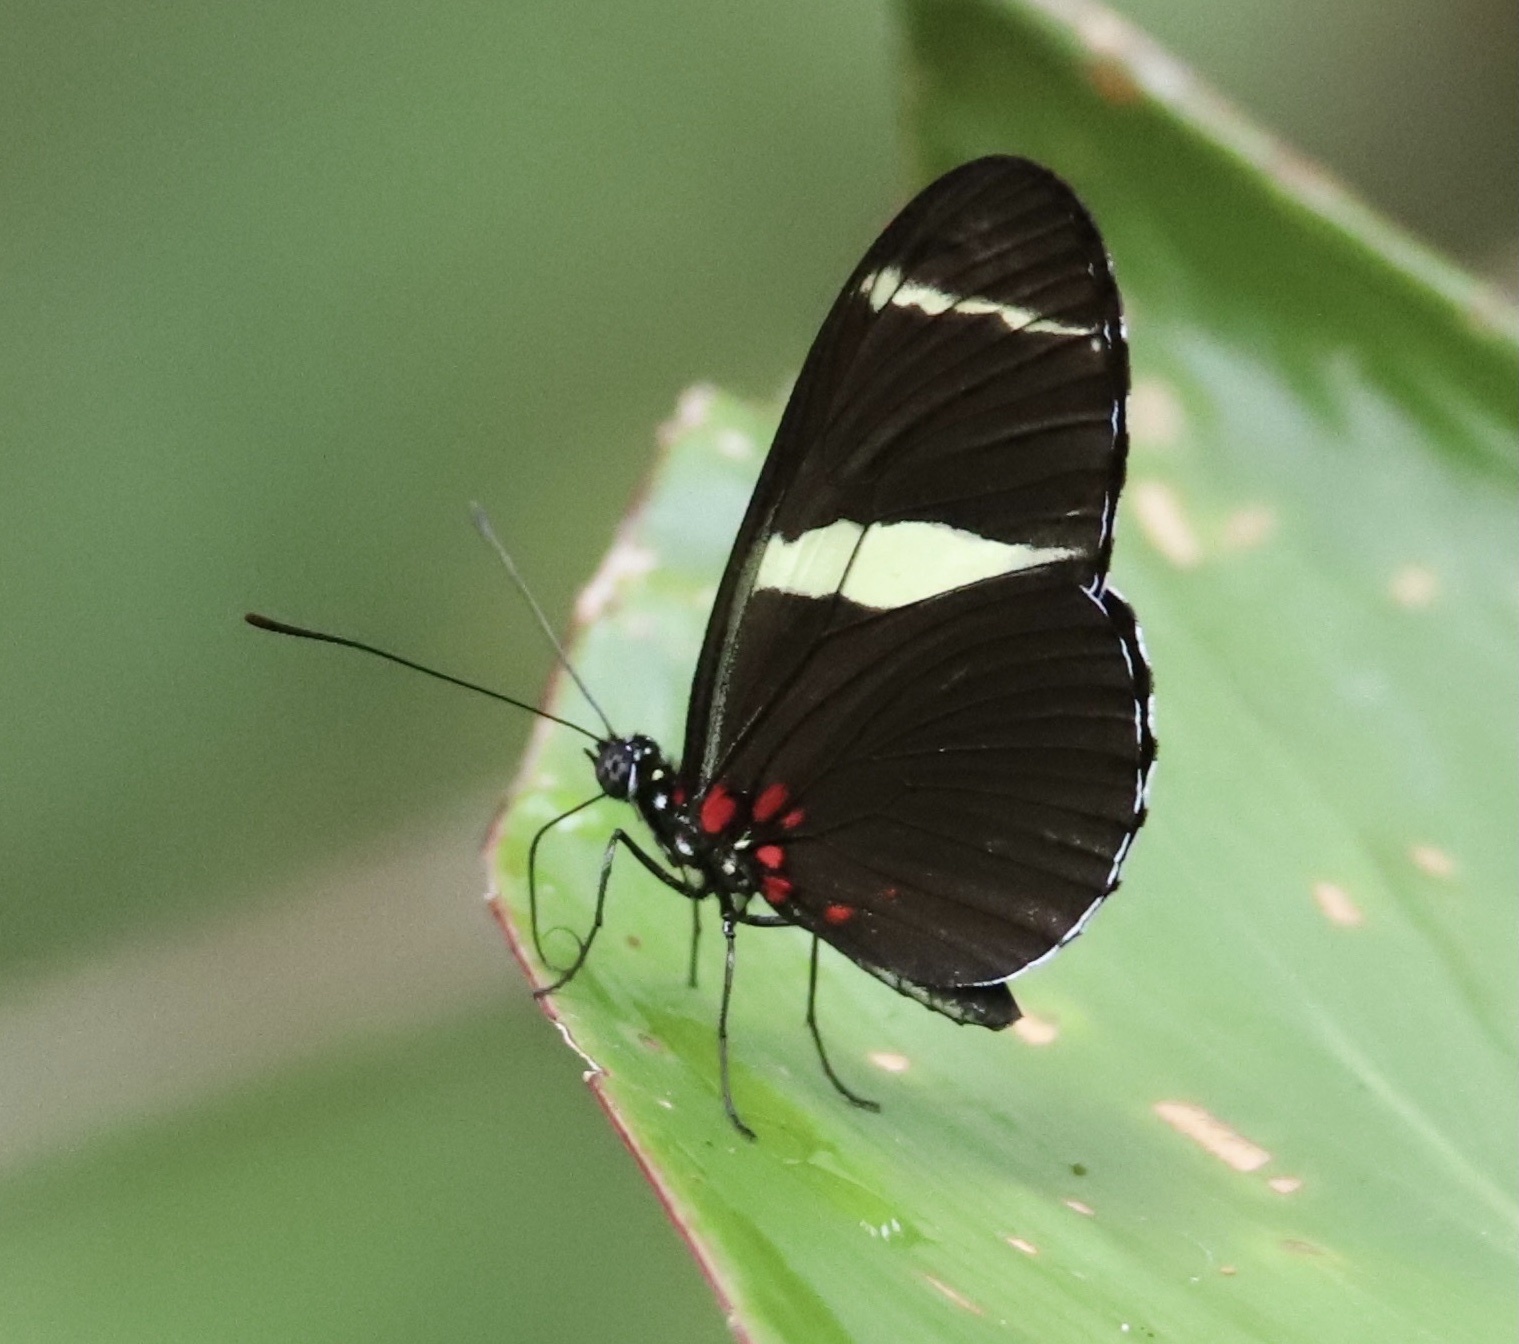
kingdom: Animalia
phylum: Arthropoda
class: Insecta
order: Lepidoptera
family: Nymphalidae
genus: Heliconius
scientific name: Heliconius sara
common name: Sara longwing
